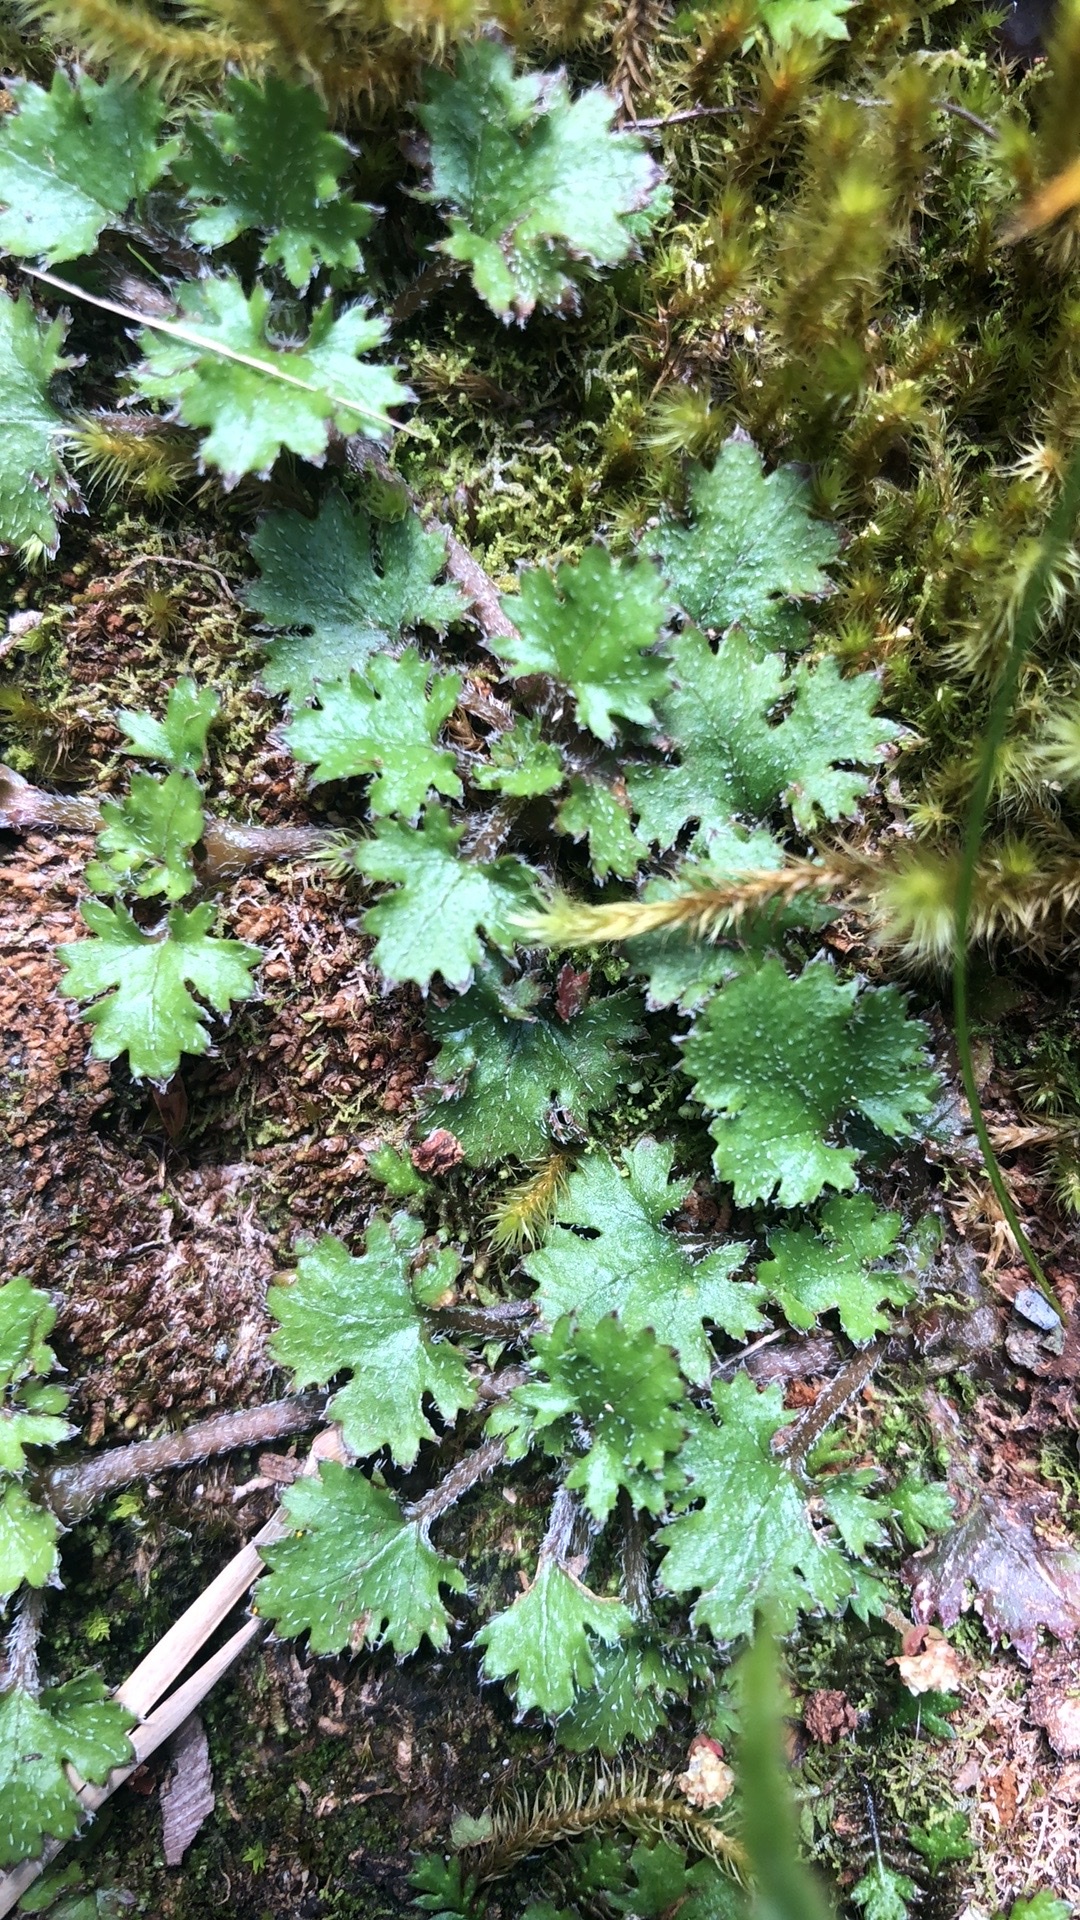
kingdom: Plantae
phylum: Tracheophyta
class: Magnoliopsida
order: Gunnerales
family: Gunneraceae
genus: Gunnera
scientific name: Gunnera monoica
